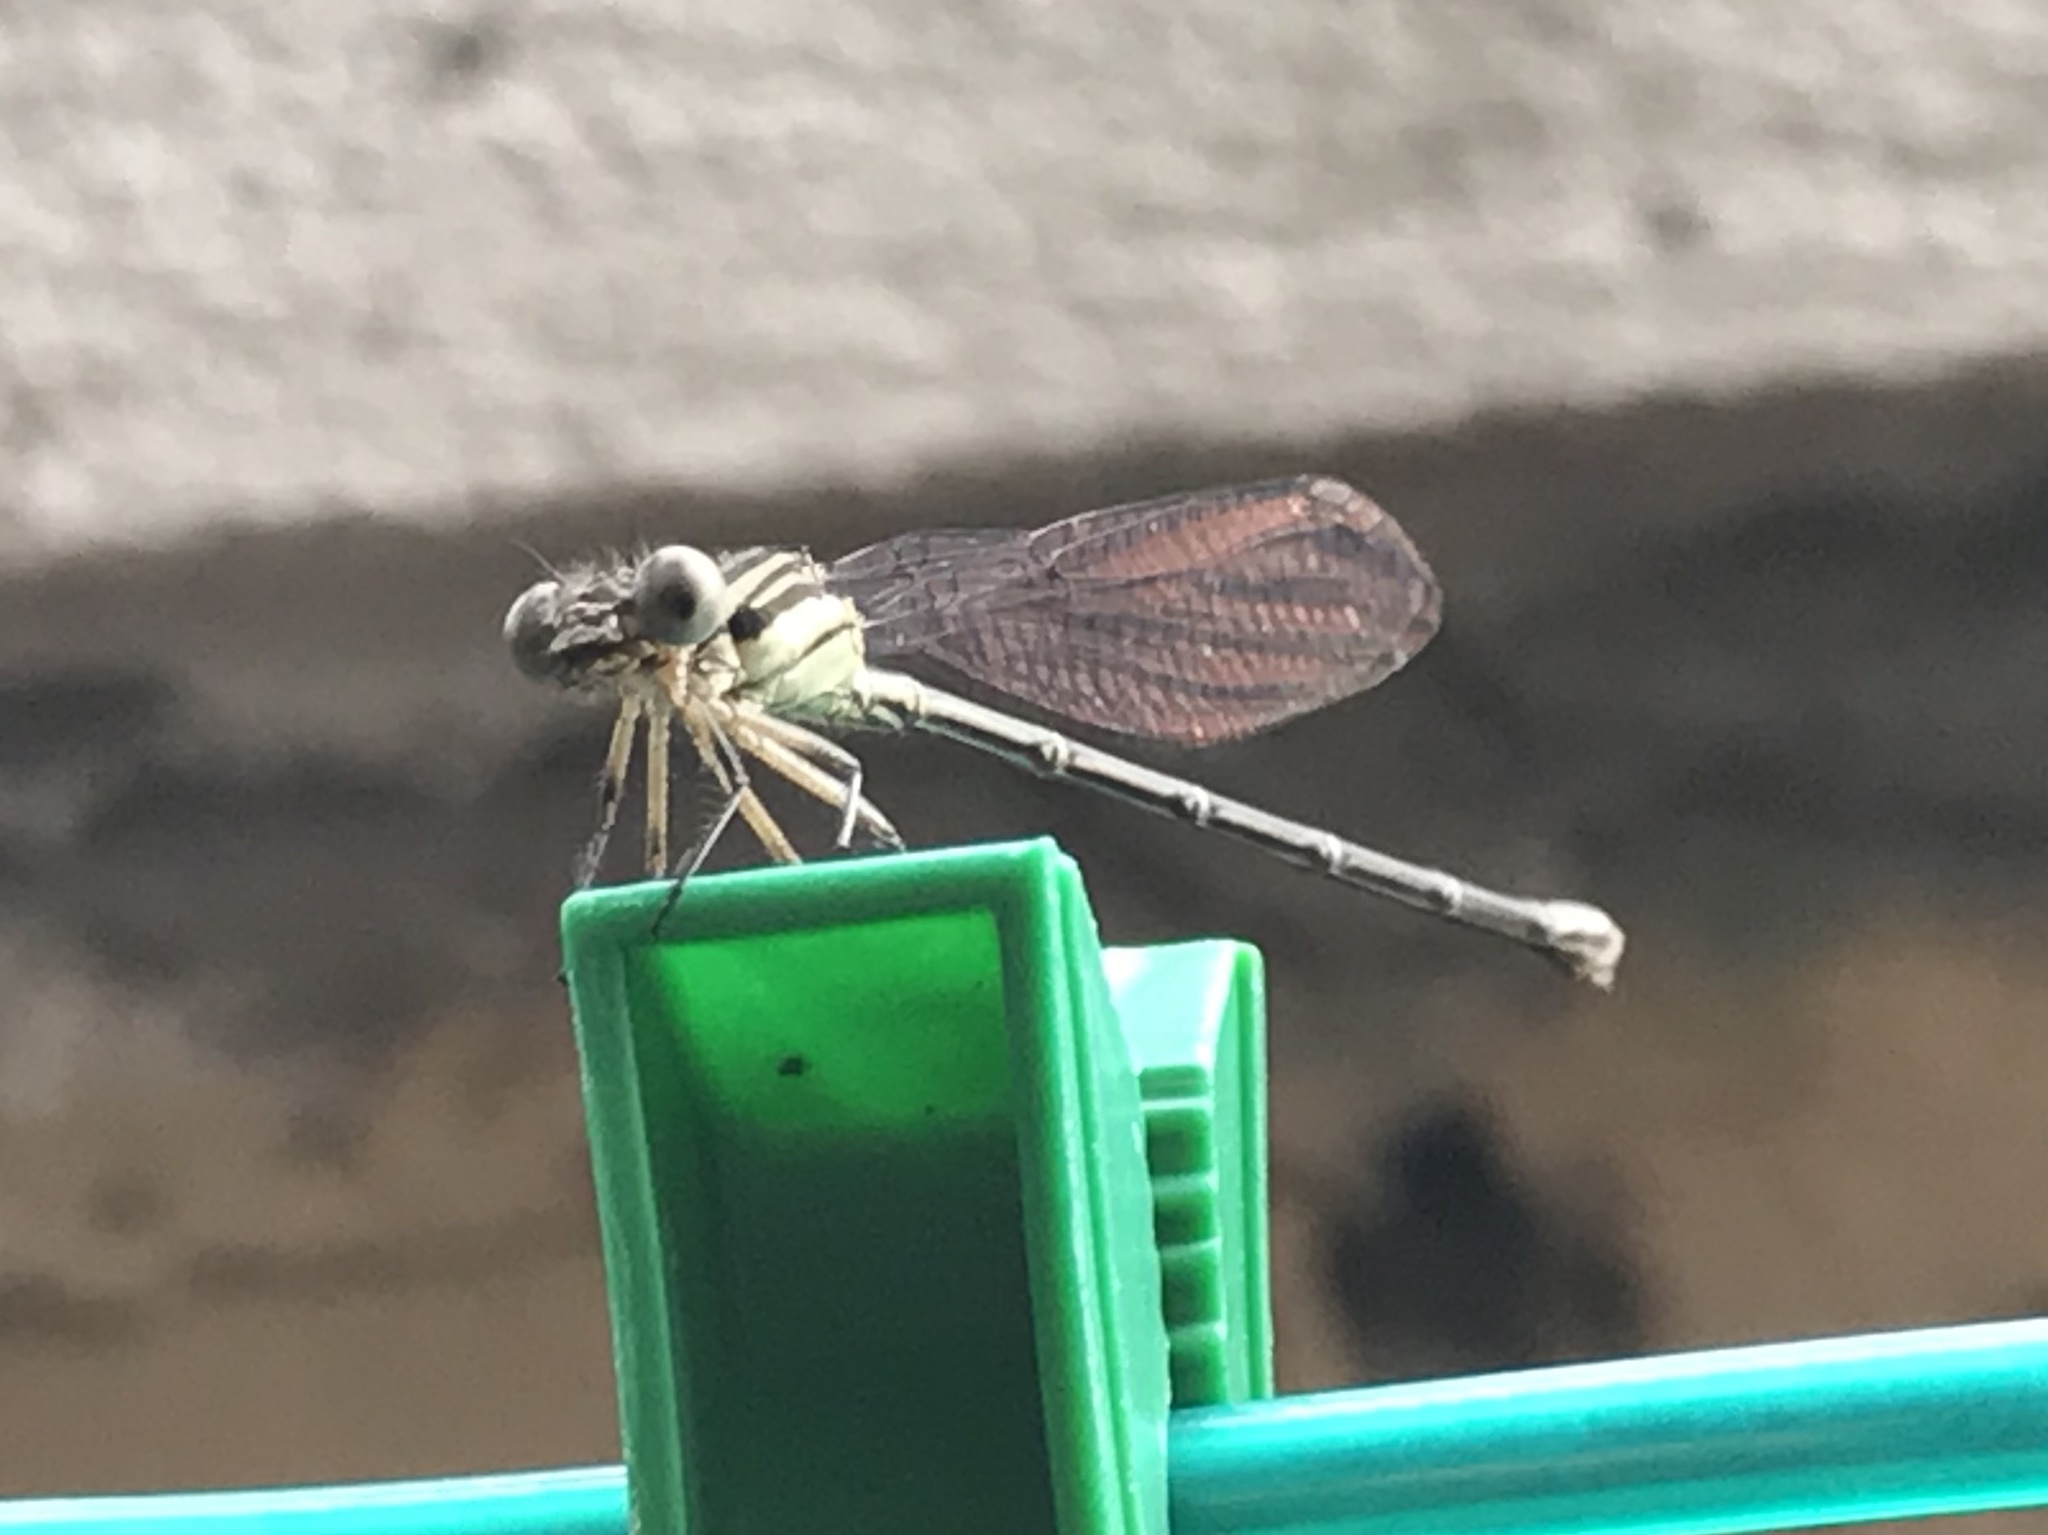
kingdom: Animalia
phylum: Arthropoda
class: Insecta
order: Odonata
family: Coenagrionidae
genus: Argia
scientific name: Argia translata
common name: Dusky dancer
